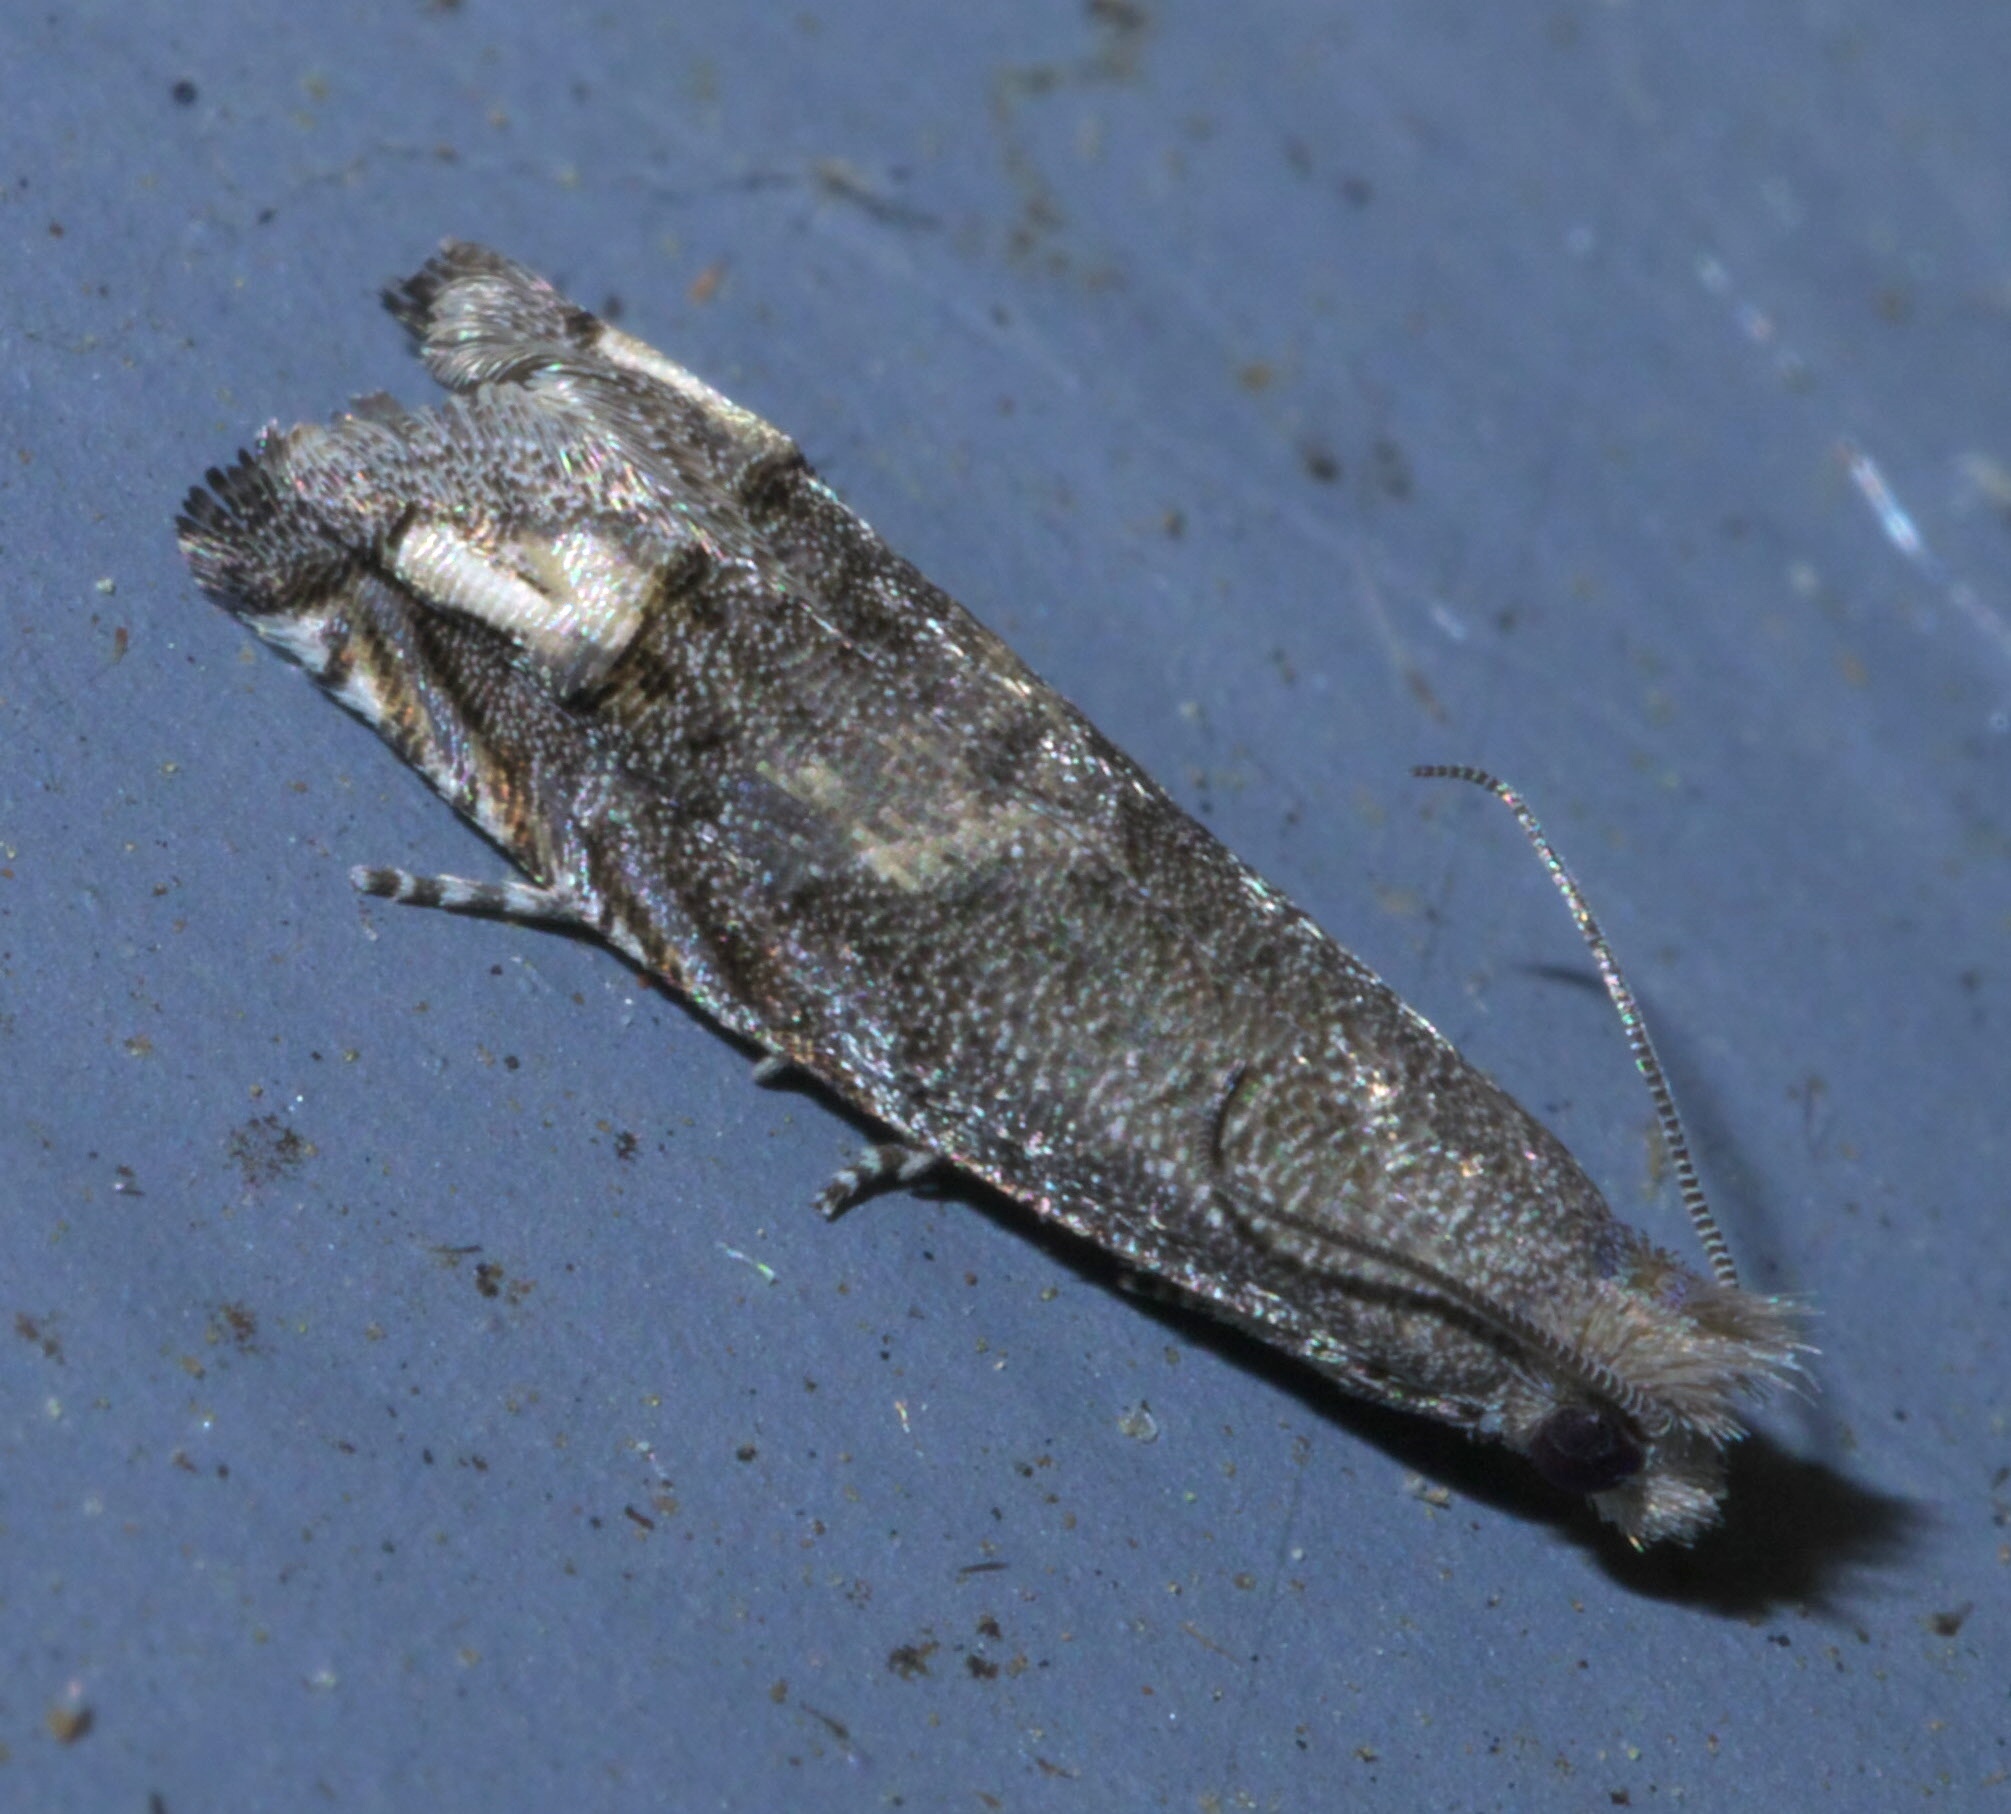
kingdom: Animalia
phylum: Arthropoda
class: Insecta
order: Lepidoptera
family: Tortricidae
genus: Epiblema
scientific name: Epiblema strenuana
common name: Ragweed borer moth
